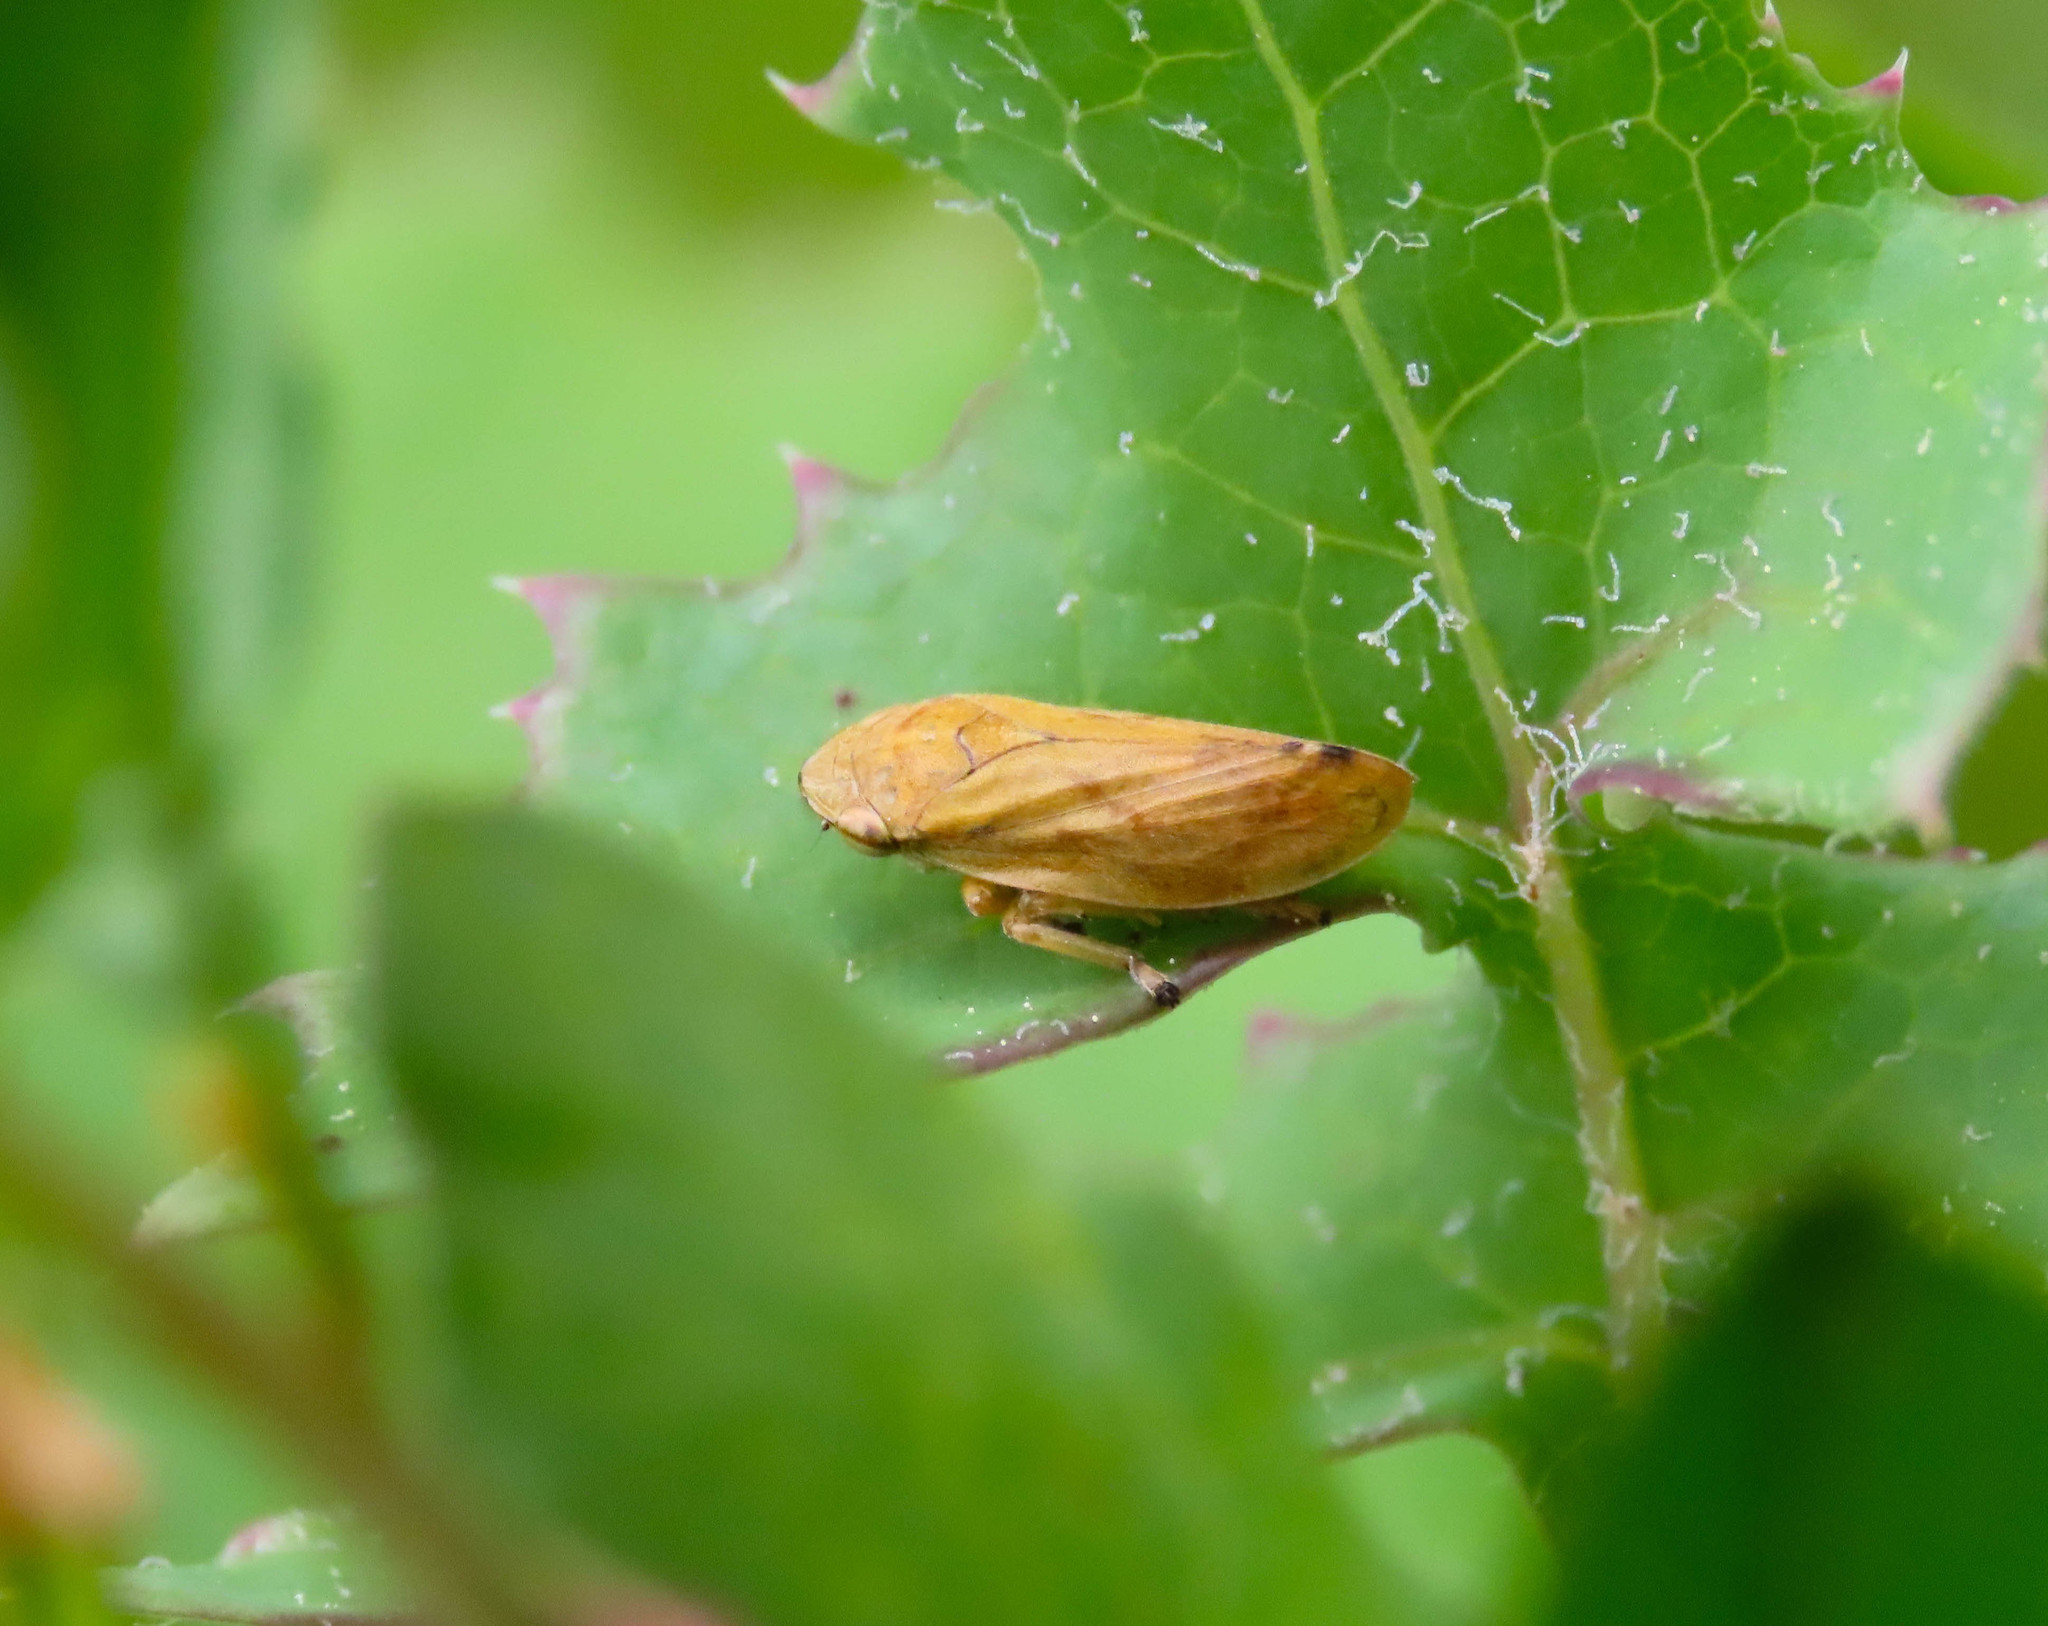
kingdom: Animalia
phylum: Arthropoda
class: Insecta
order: Hemiptera
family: Aphrophoridae
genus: Philaenus
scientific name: Philaenus spumarius
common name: Meadow spittlebug
